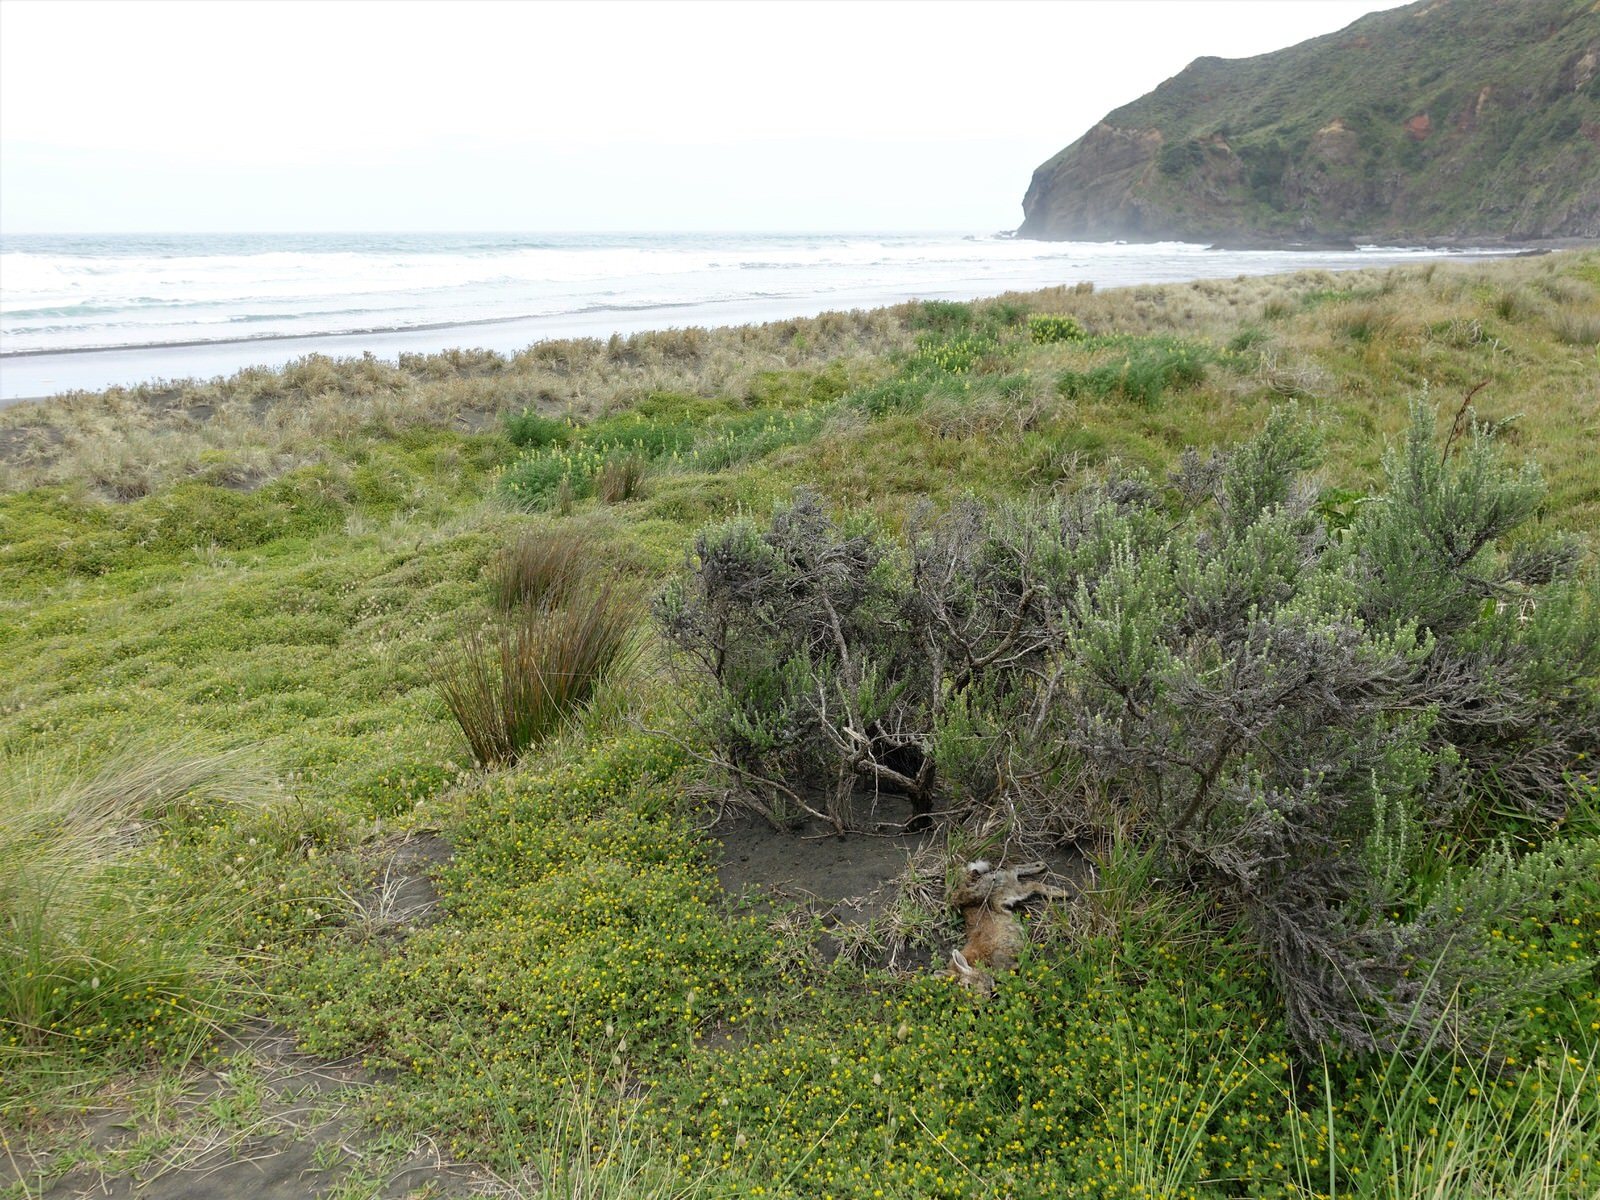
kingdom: Animalia
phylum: Chordata
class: Mammalia
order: Lagomorpha
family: Leporidae
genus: Oryctolagus
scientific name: Oryctolagus cuniculus
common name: European rabbit
